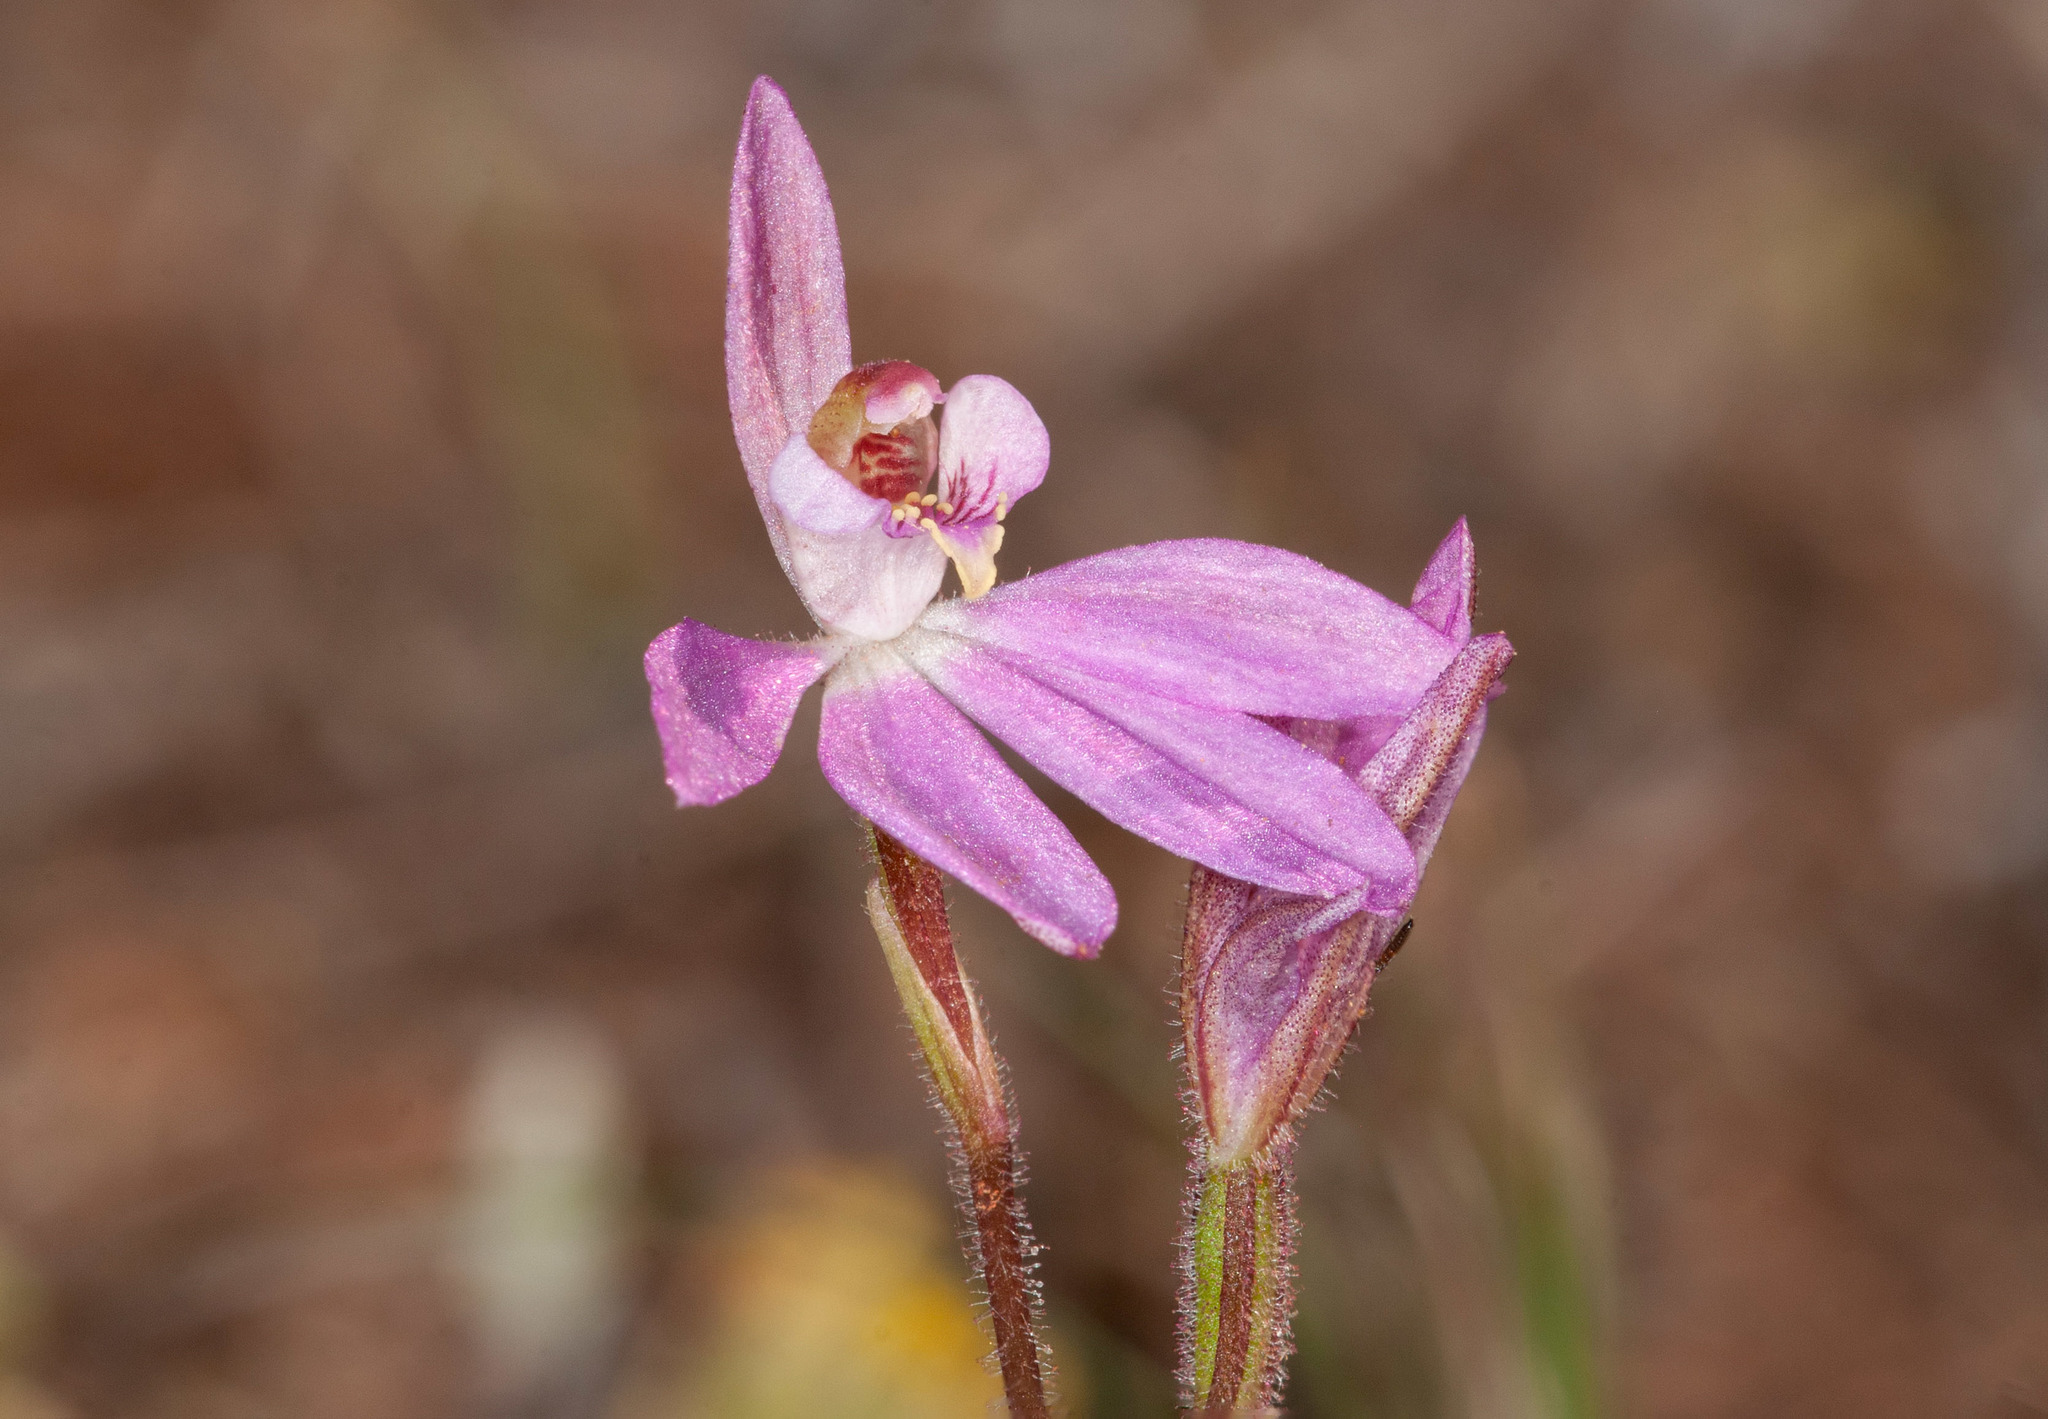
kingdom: Plantae
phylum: Tracheophyta
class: Liliopsida
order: Asparagales
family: Orchidaceae
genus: Caladenia
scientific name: Caladenia carnea
